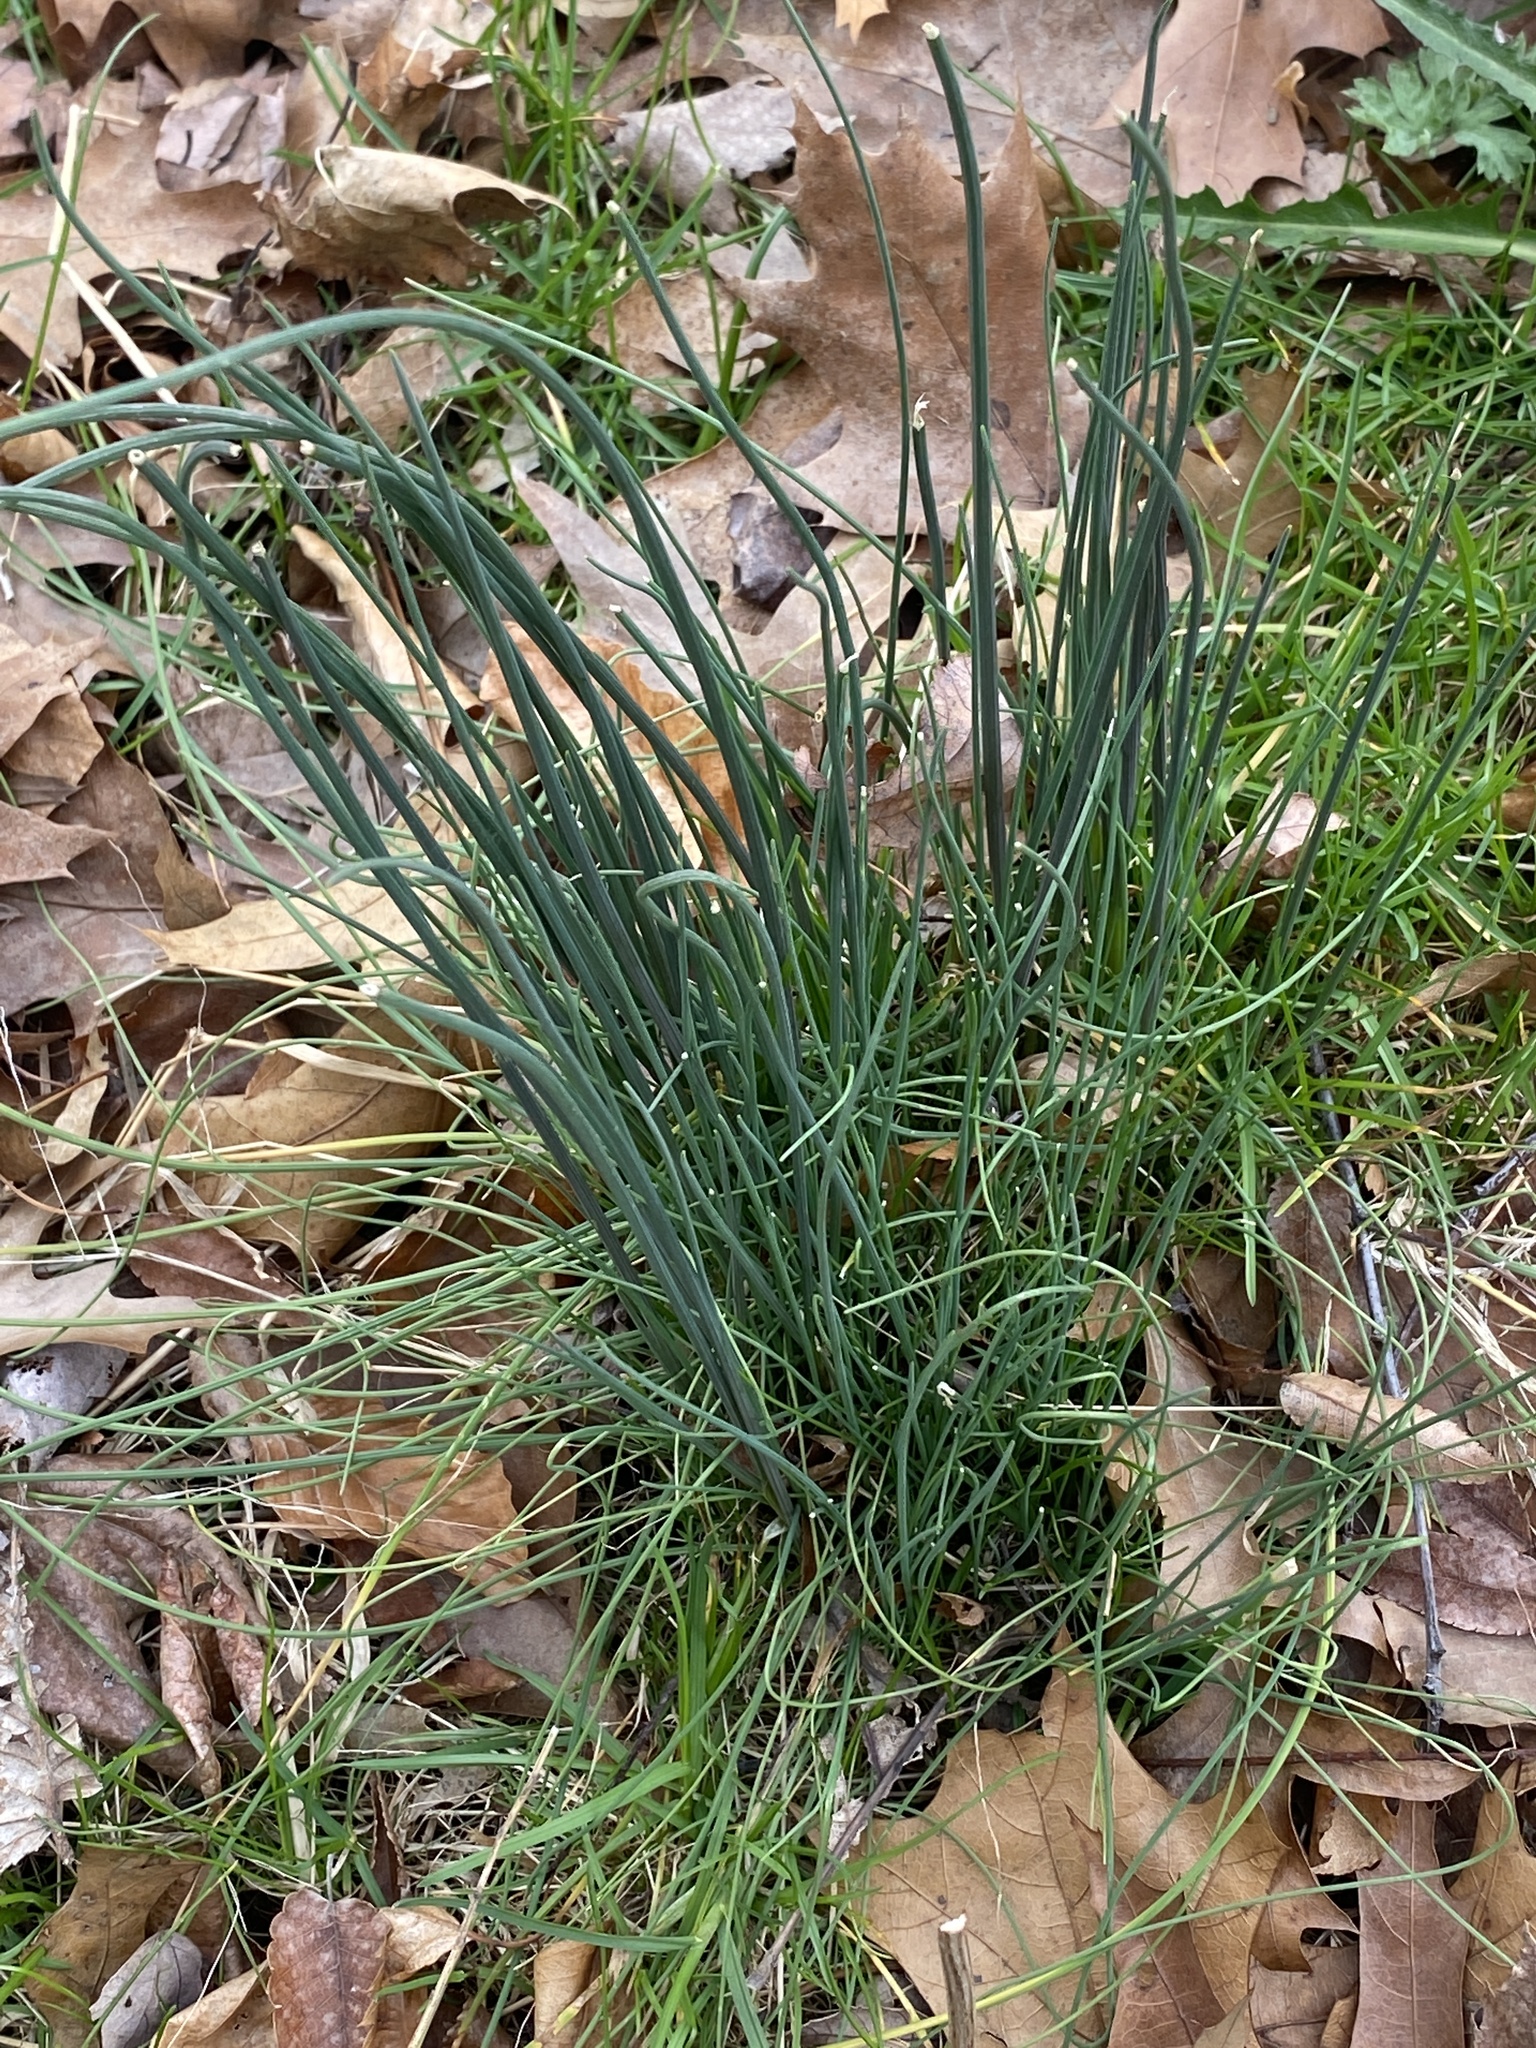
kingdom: Plantae
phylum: Tracheophyta
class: Liliopsida
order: Asparagales
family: Amaryllidaceae
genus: Allium
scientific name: Allium vineale
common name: Crow garlic
